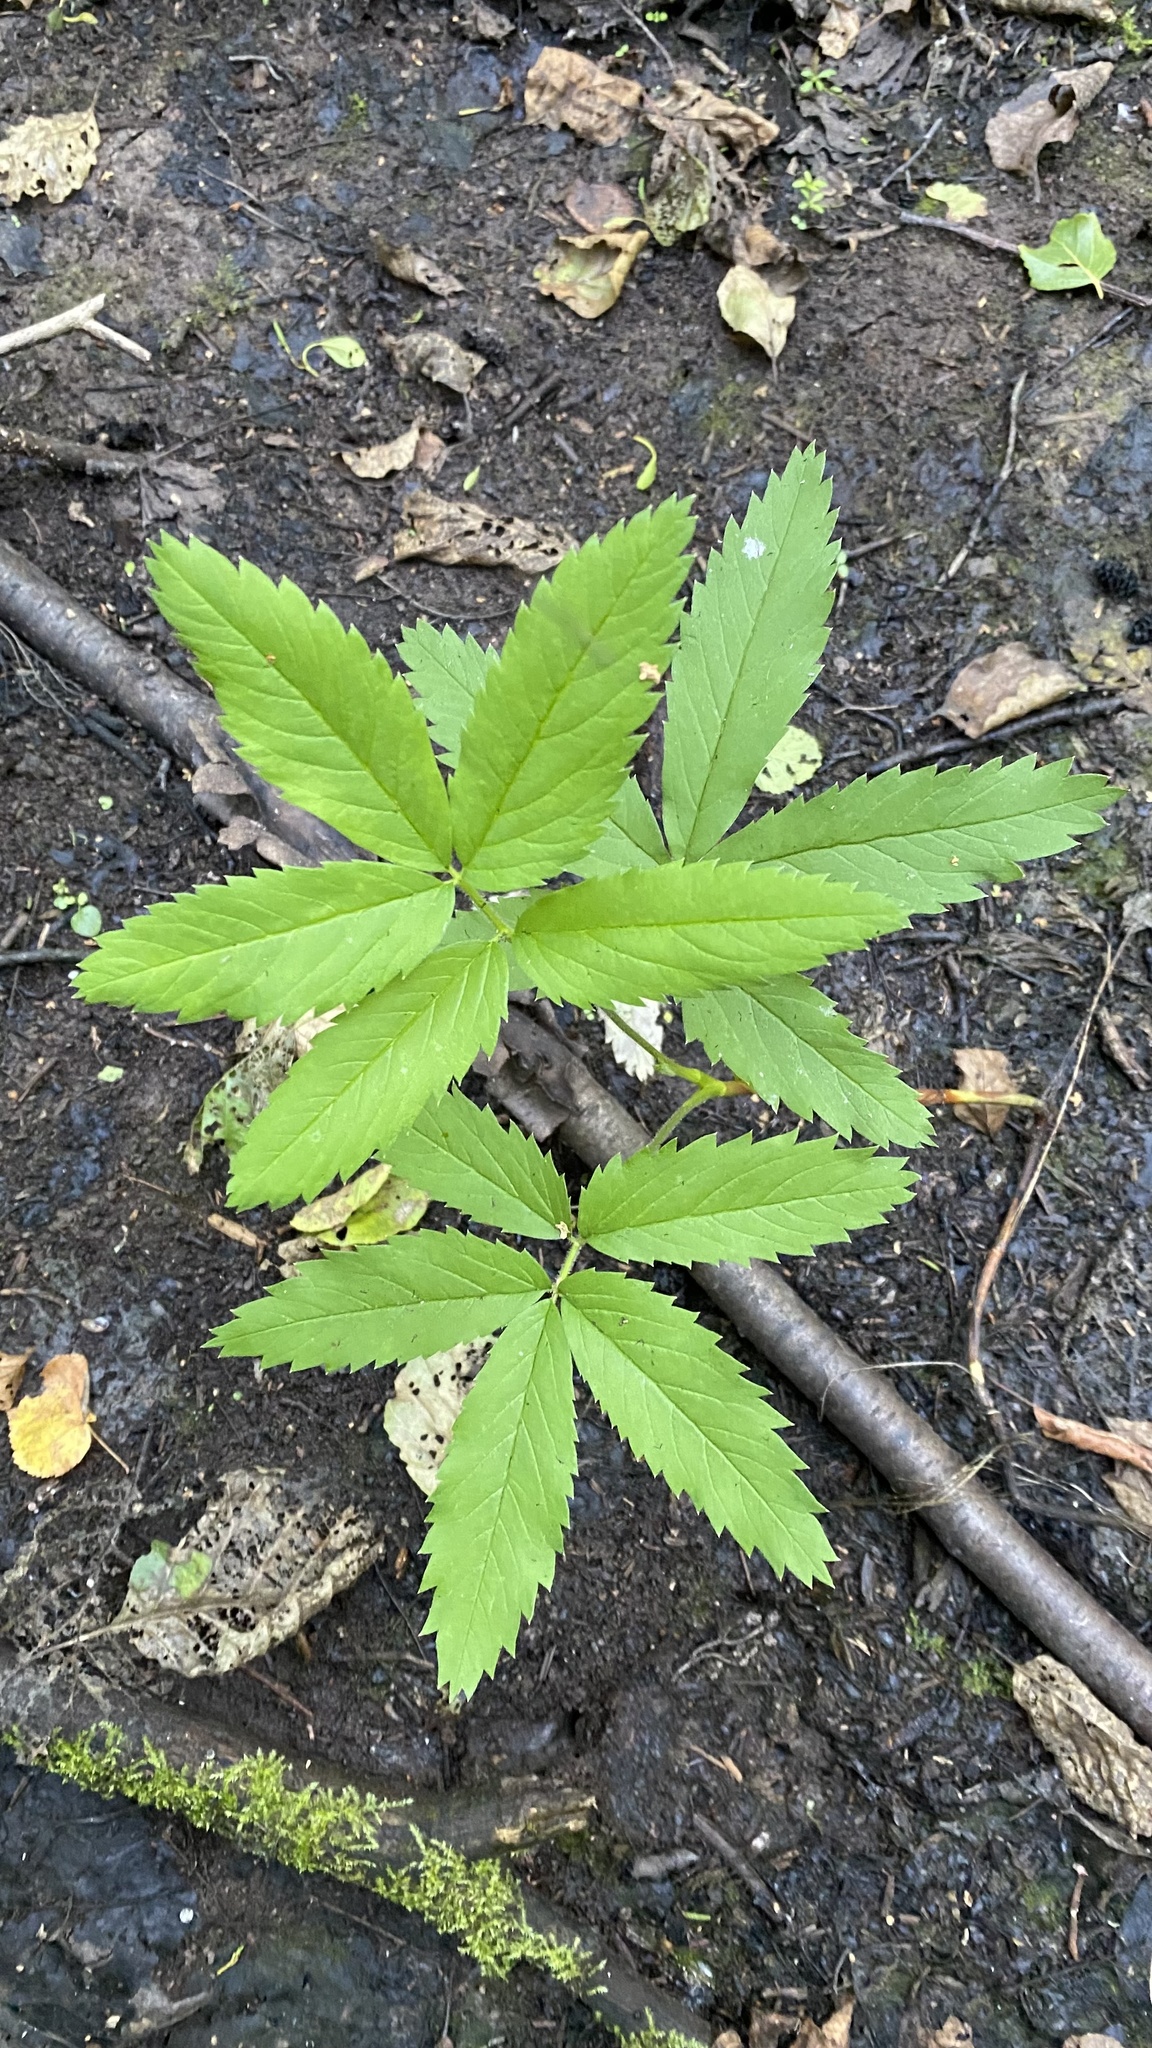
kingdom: Plantae
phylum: Tracheophyta
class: Magnoliopsida
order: Rosales
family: Rosaceae
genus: Comarum
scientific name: Comarum palustre
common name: Marsh cinquefoil
